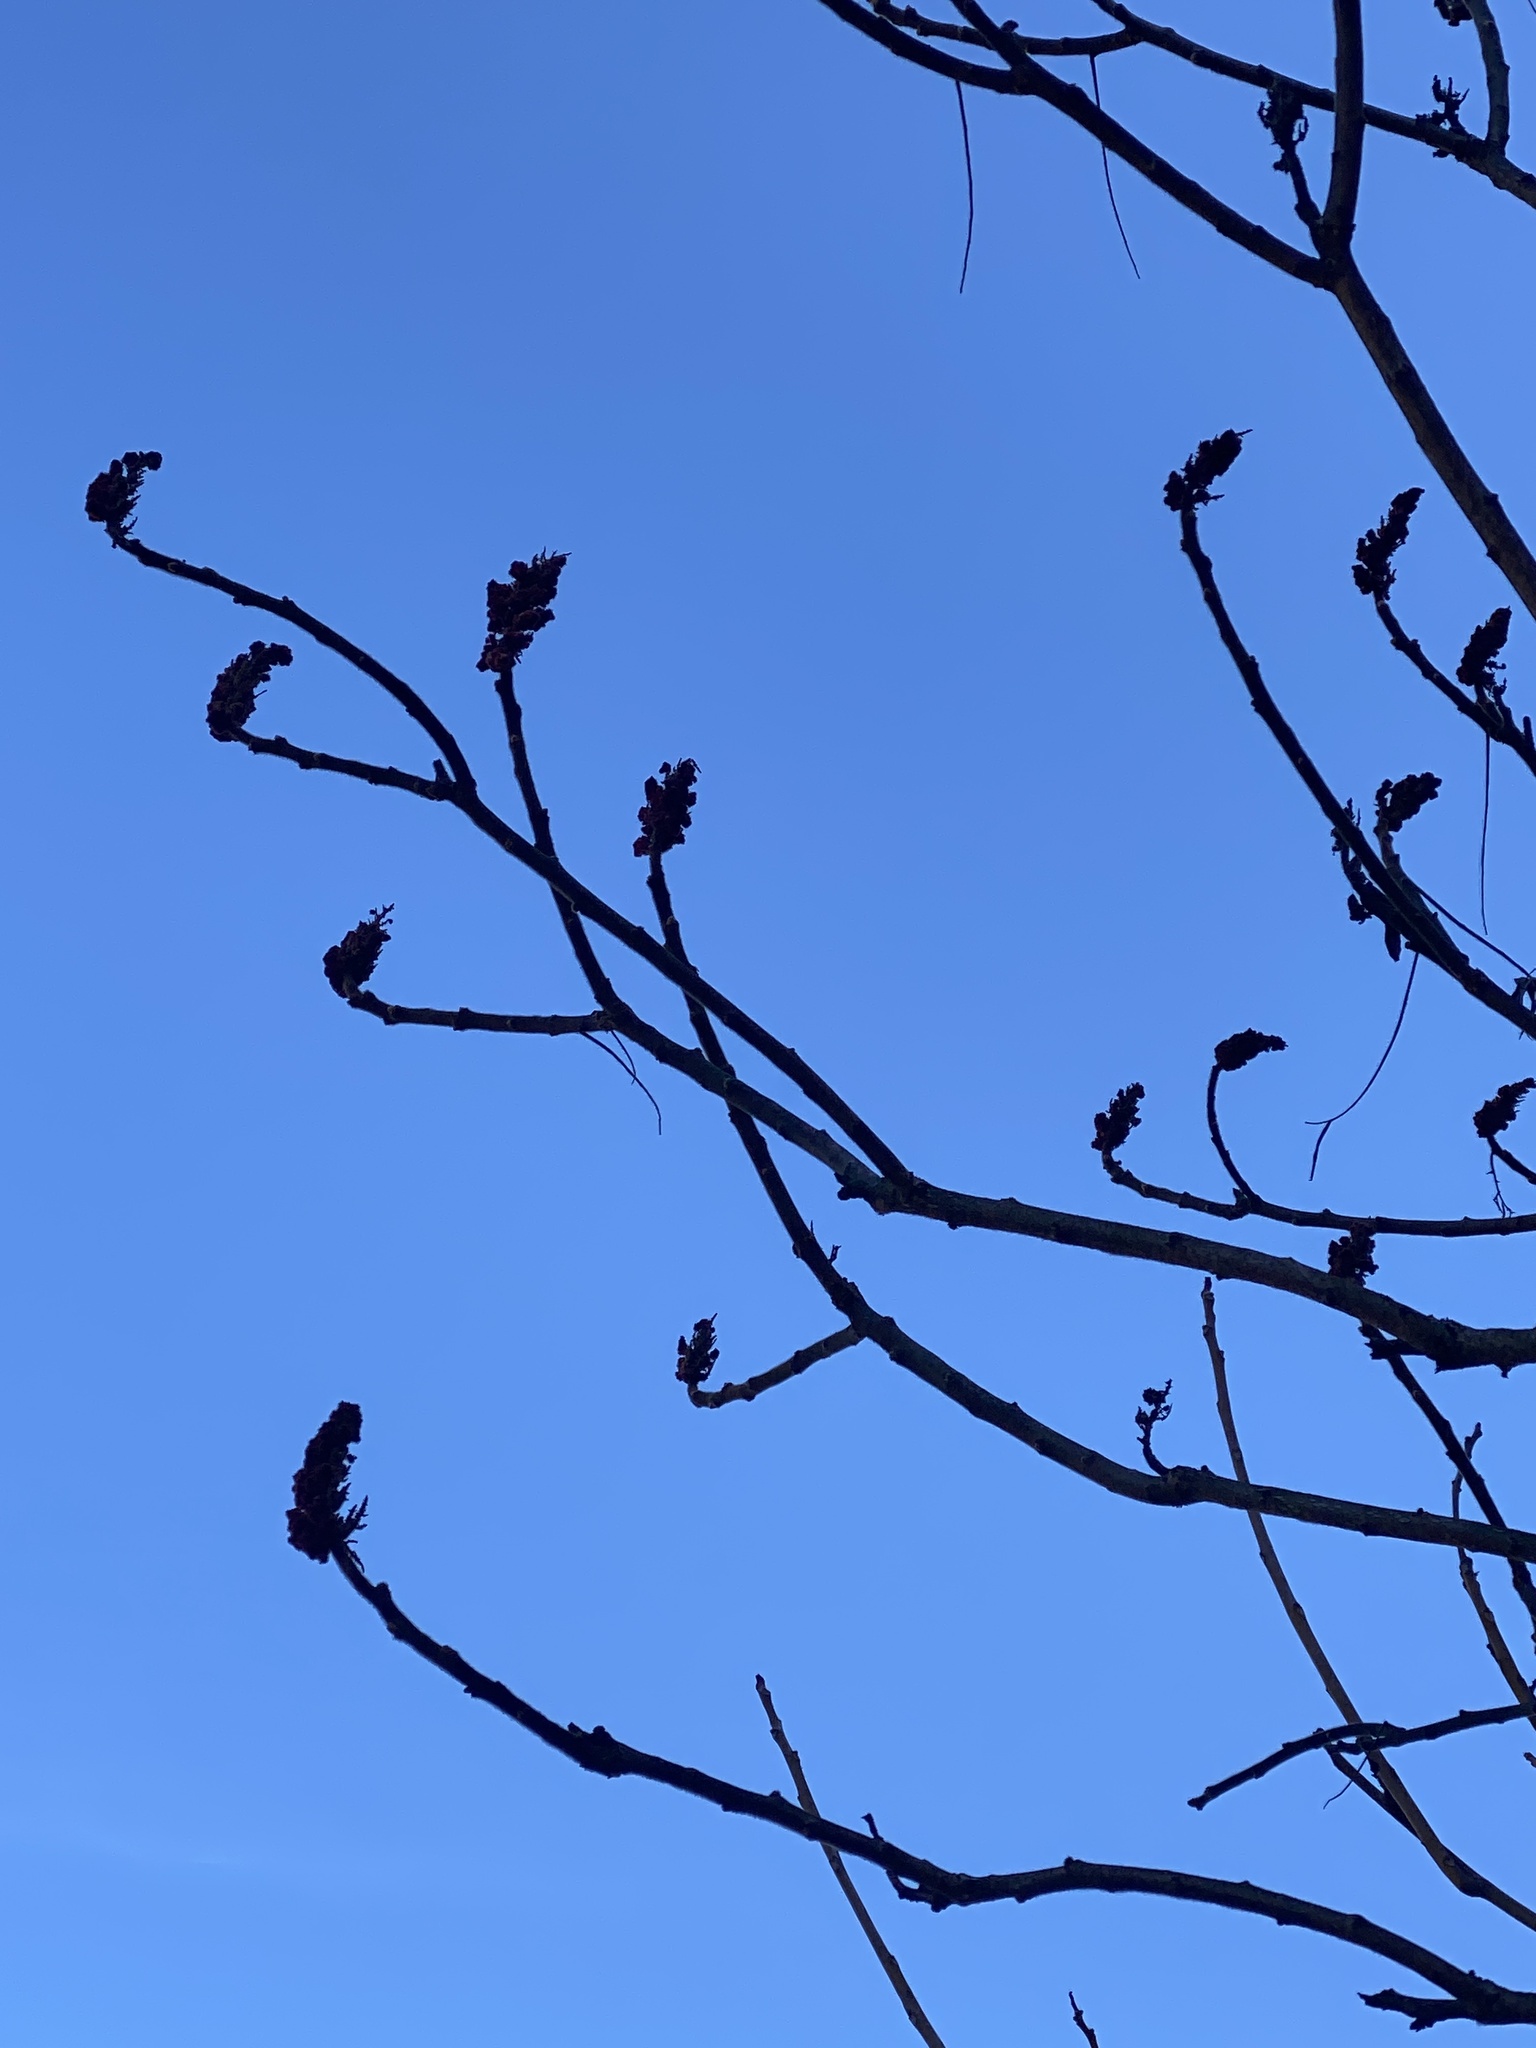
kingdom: Plantae
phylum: Tracheophyta
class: Magnoliopsida
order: Sapindales
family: Anacardiaceae
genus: Rhus
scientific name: Rhus typhina
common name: Staghorn sumac
